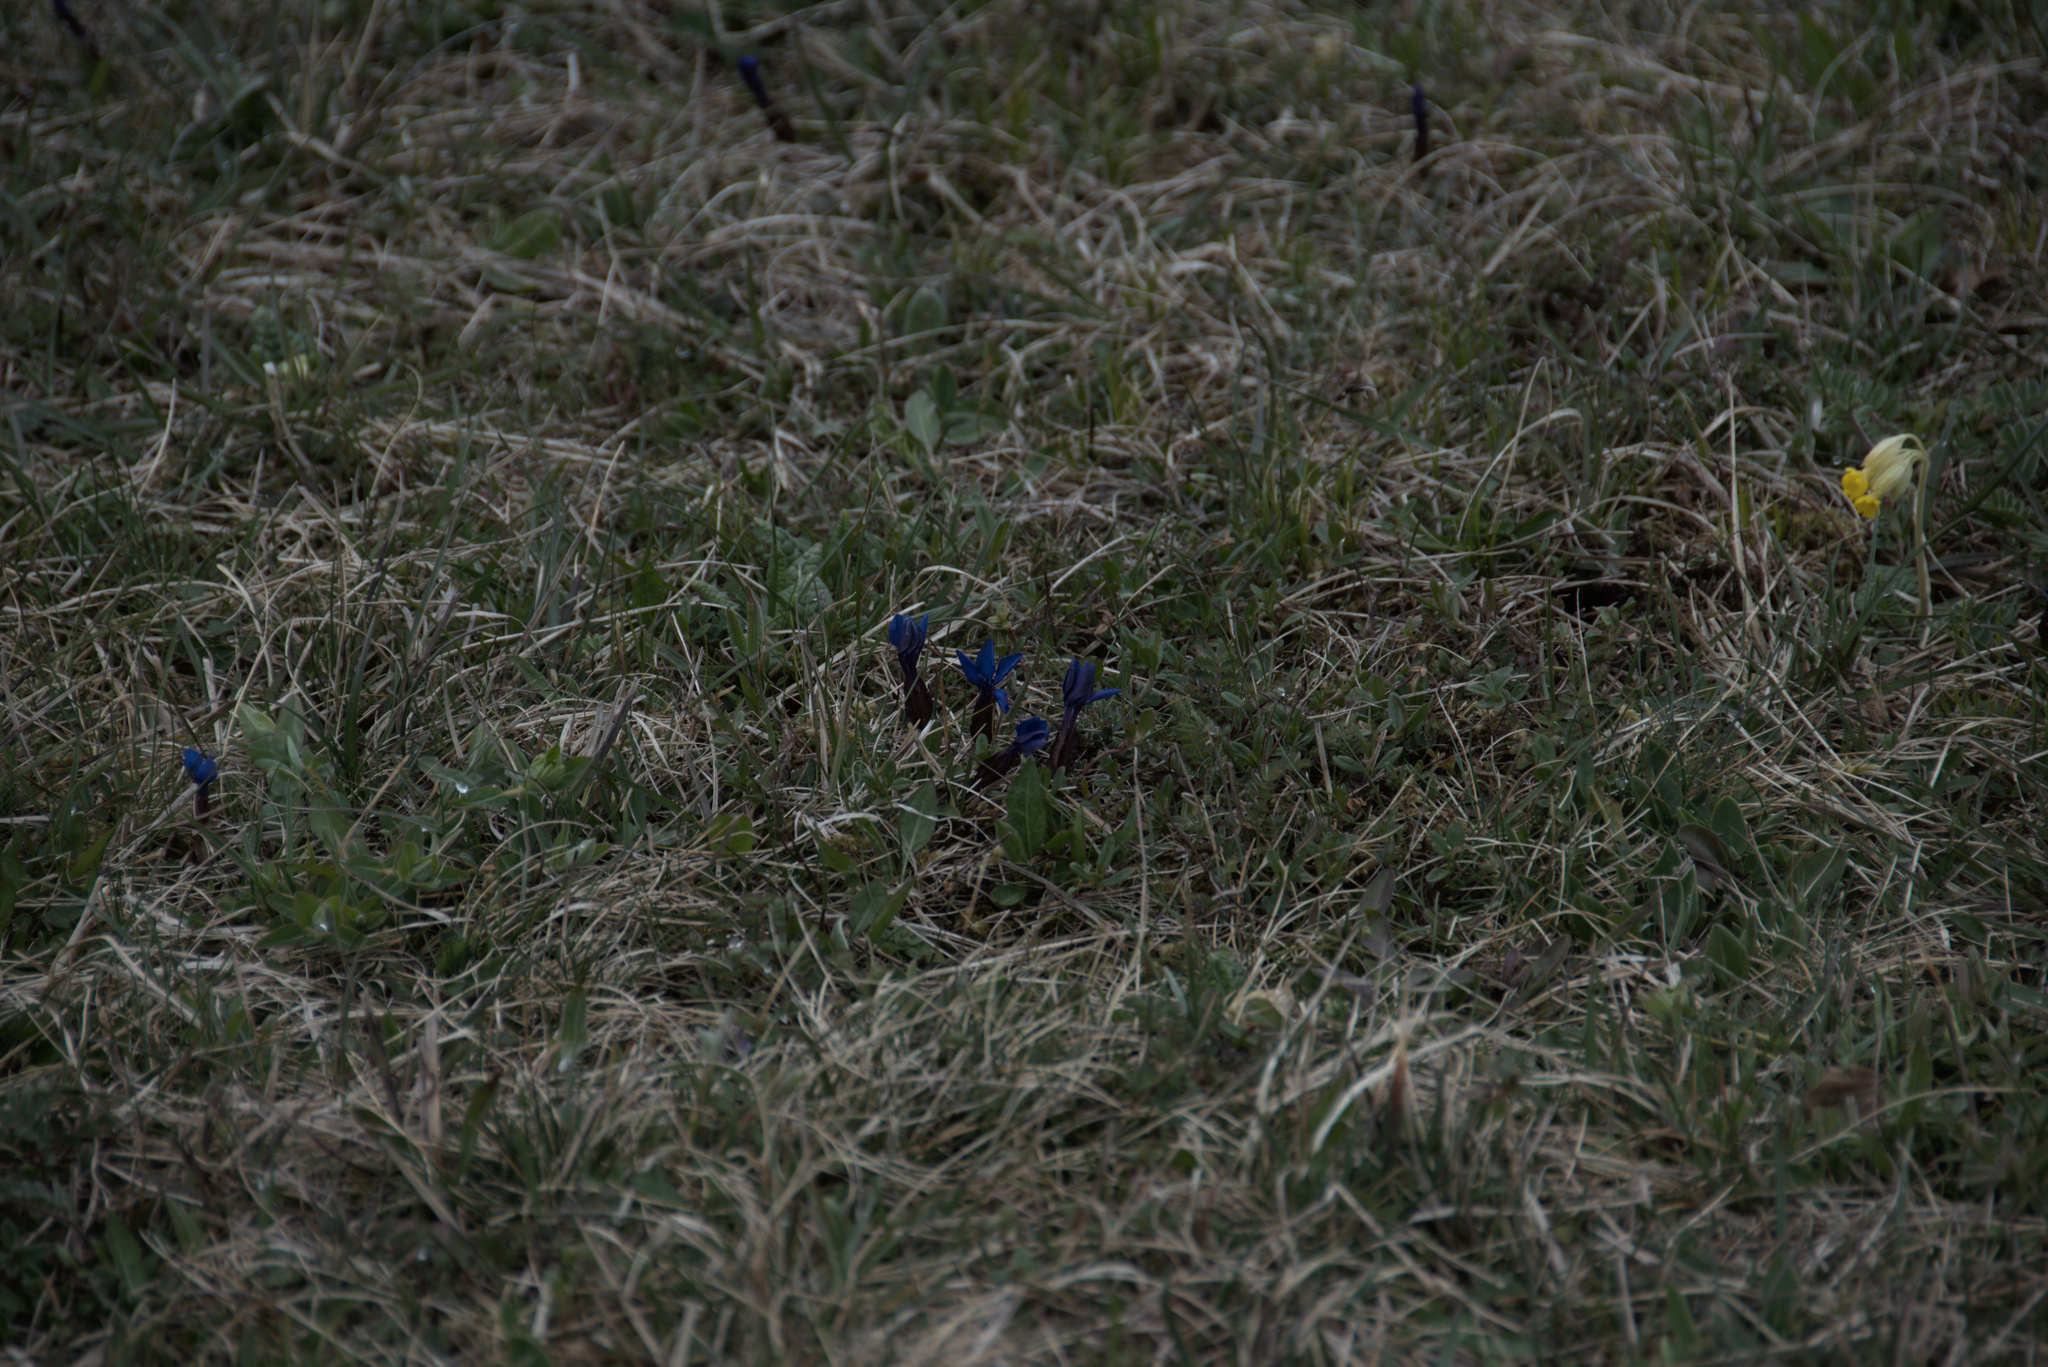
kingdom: Plantae
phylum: Tracheophyta
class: Magnoliopsida
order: Gentianales
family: Gentianaceae
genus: Gentiana
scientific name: Gentiana verna
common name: Spring gentian
